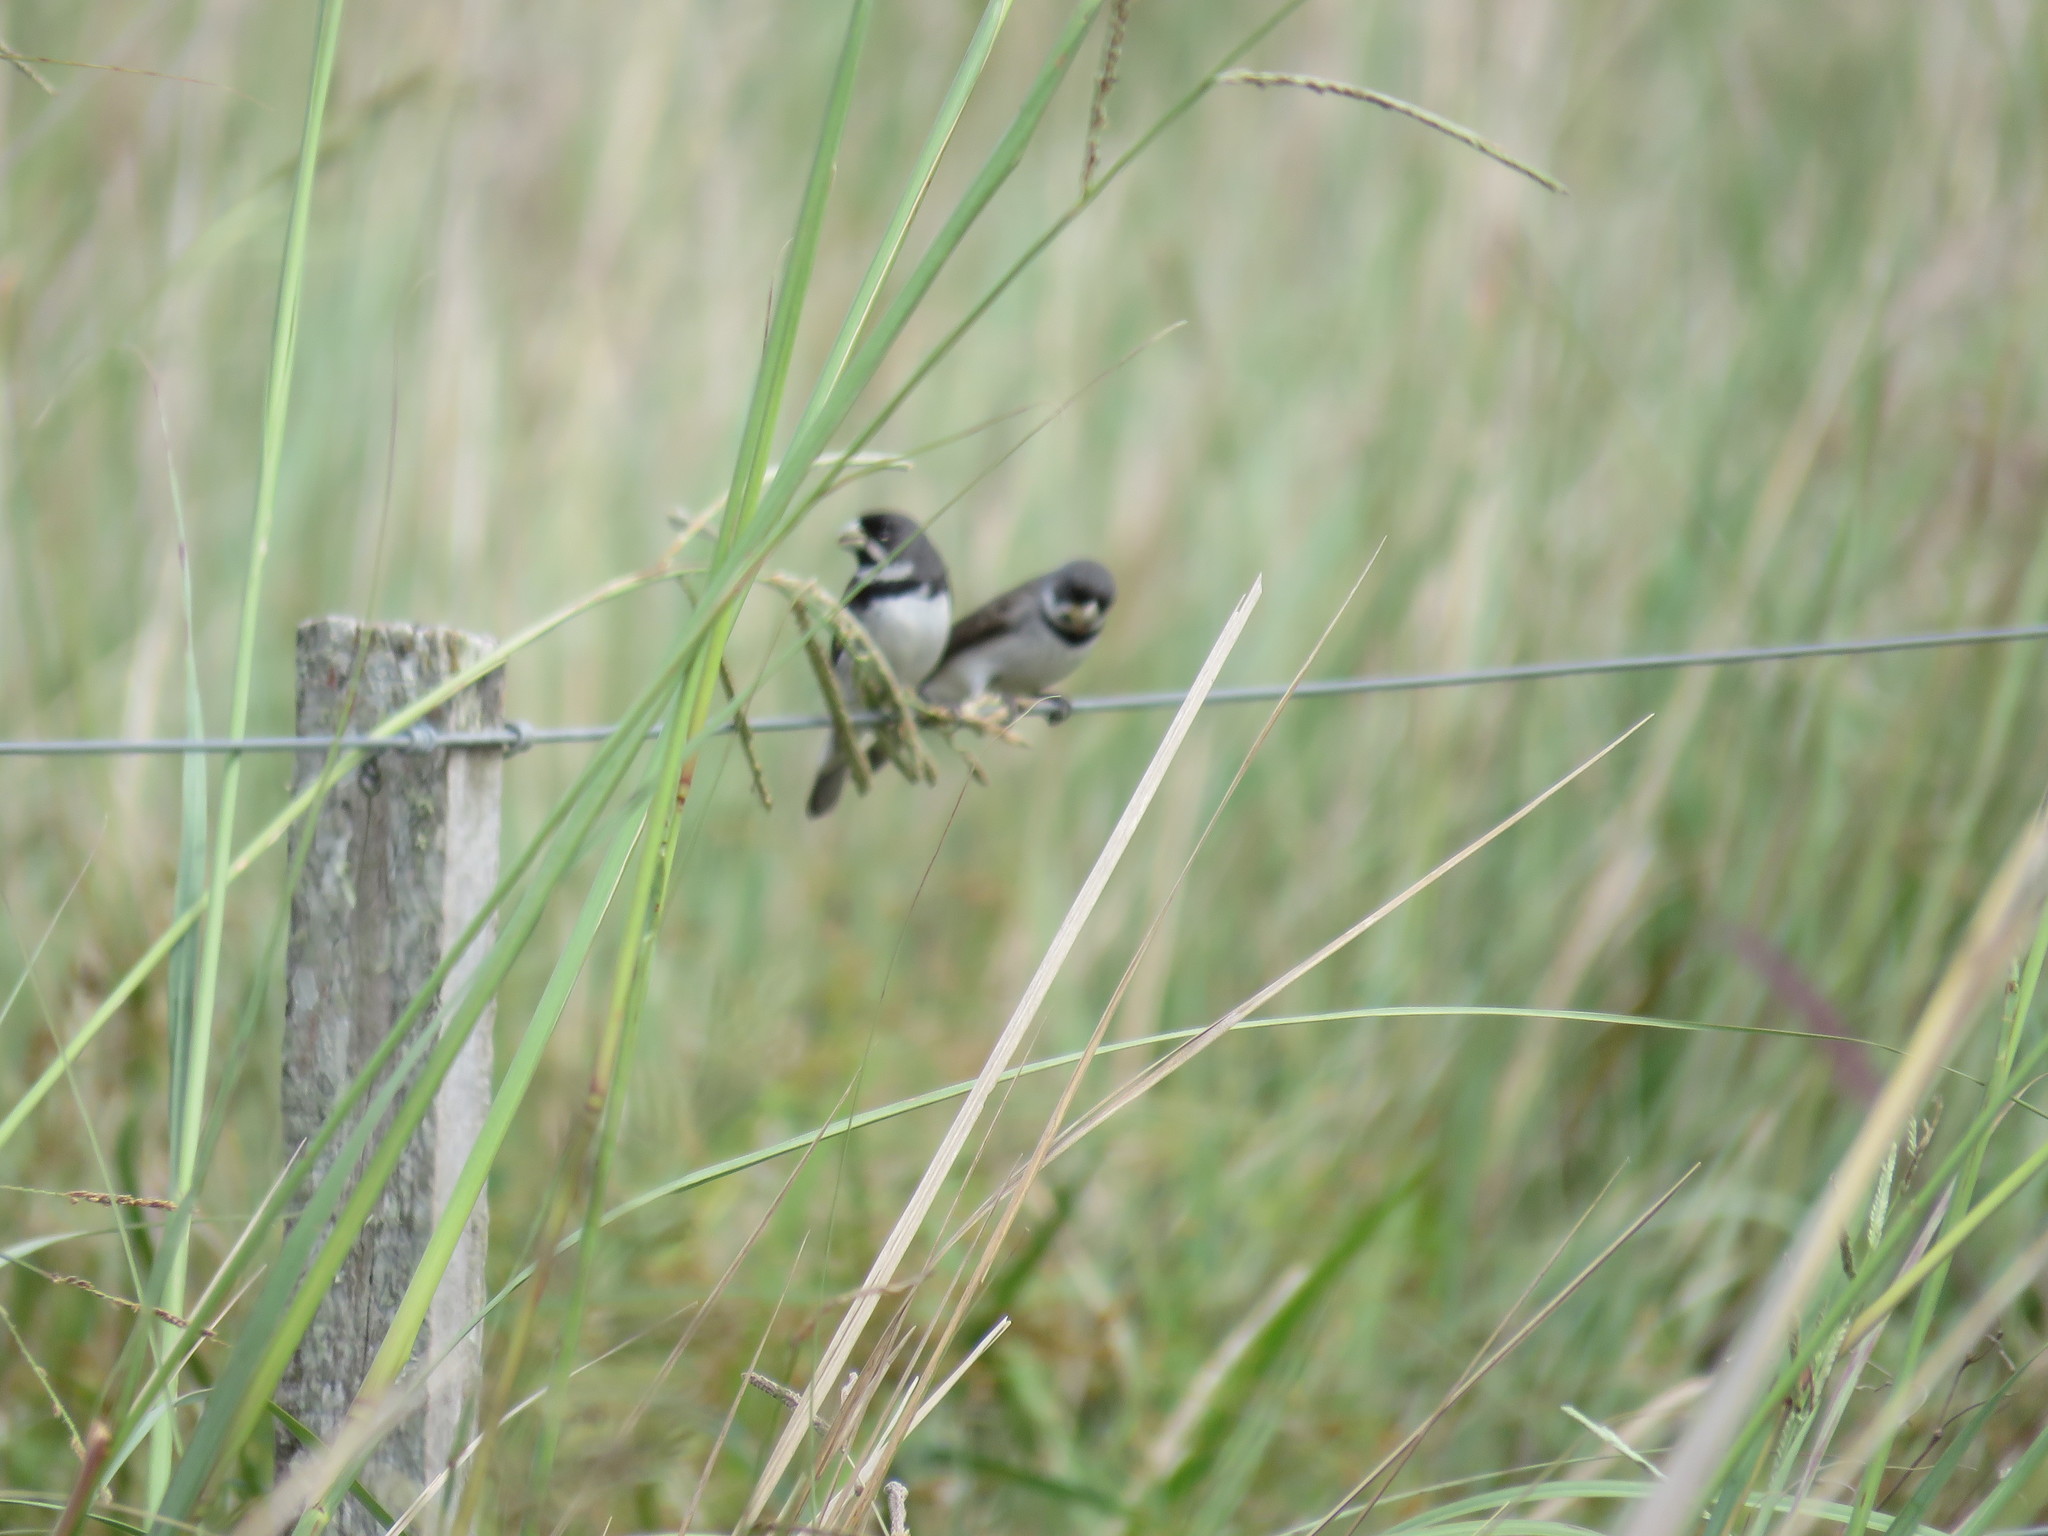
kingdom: Animalia
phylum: Chordata
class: Aves
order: Passeriformes
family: Thraupidae
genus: Sporophila
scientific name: Sporophila caerulescens
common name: Double-collared seedeater
